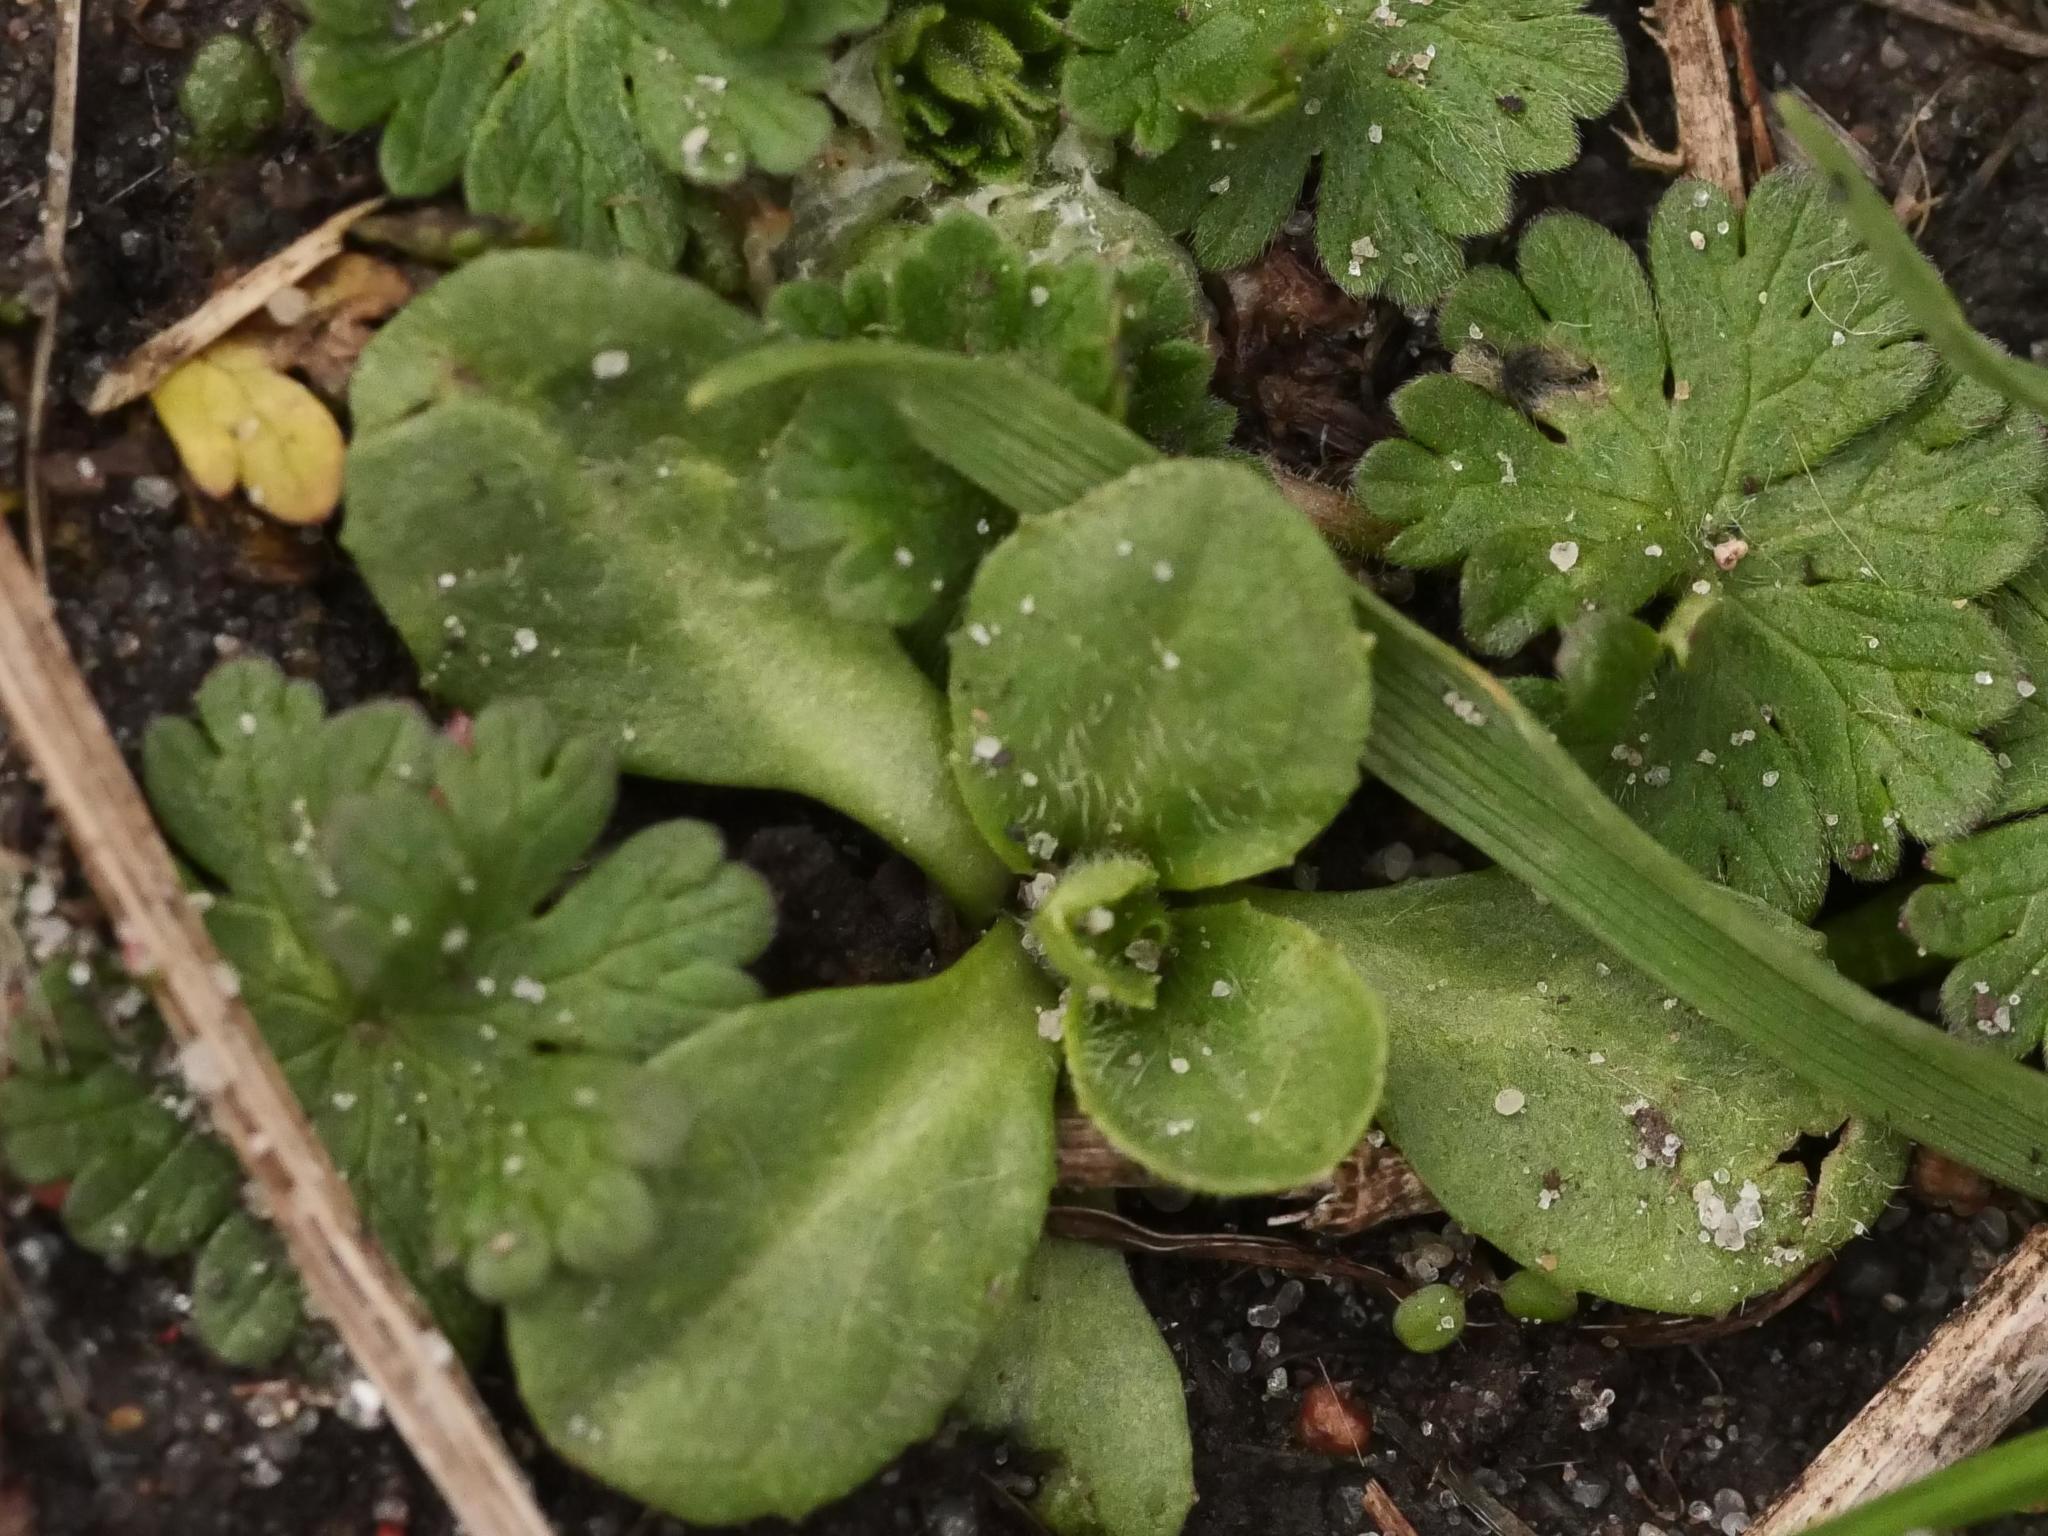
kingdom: Plantae
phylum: Tracheophyta
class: Magnoliopsida
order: Asterales
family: Asteraceae
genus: Bellis
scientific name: Bellis perennis
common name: Lawndaisy
